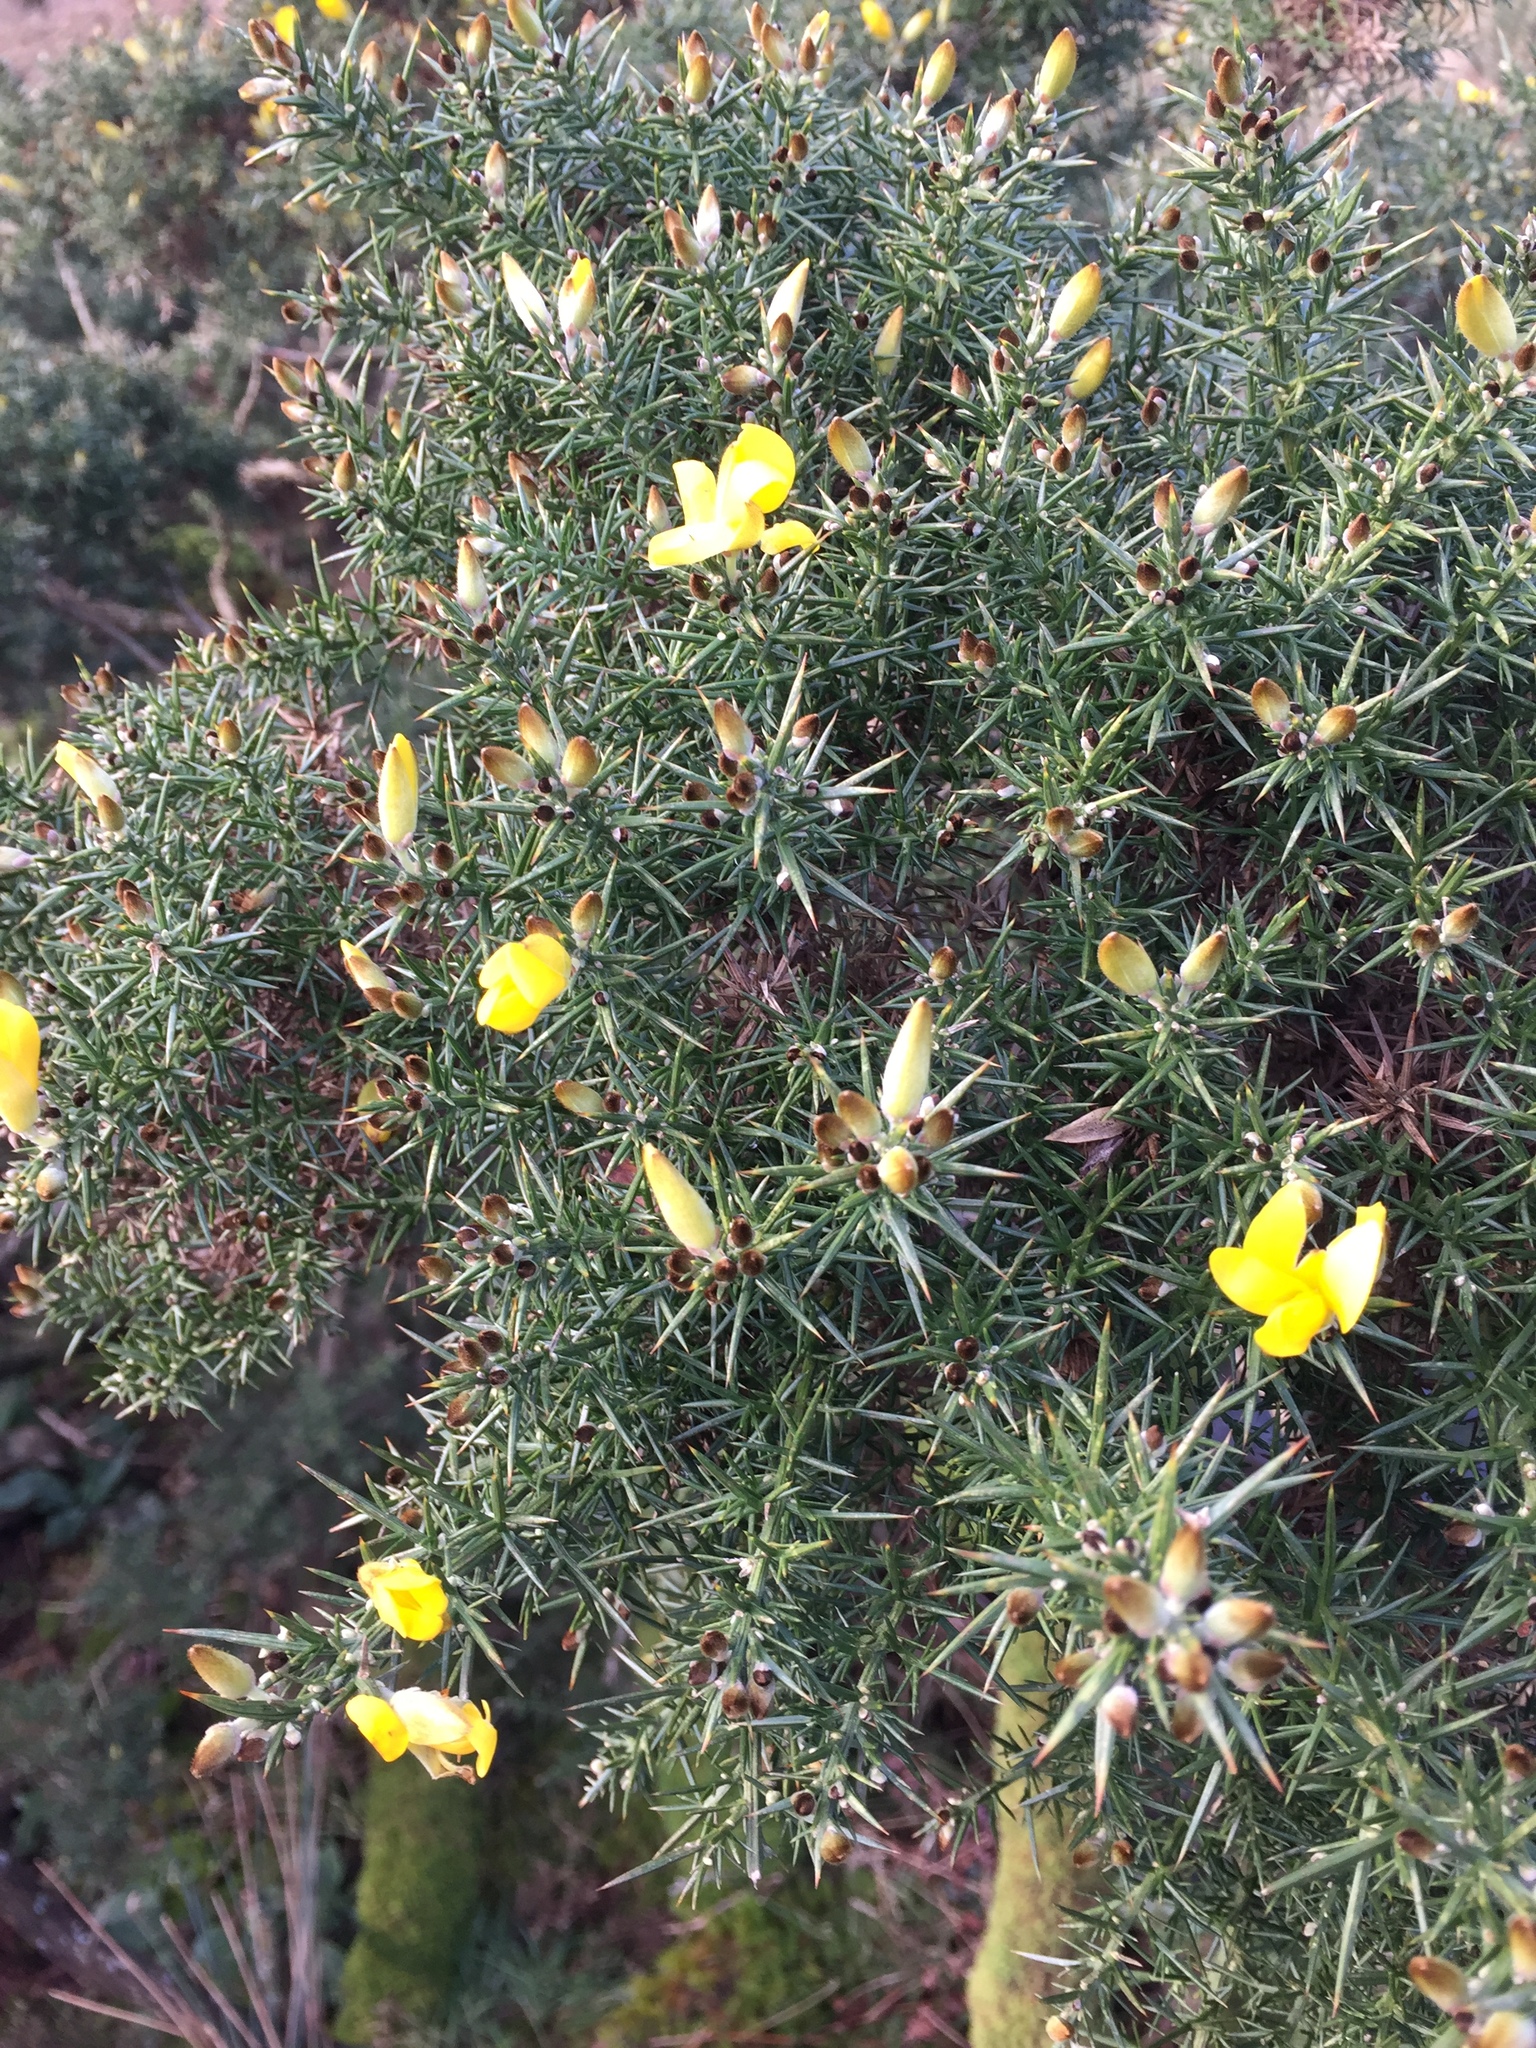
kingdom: Plantae
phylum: Tracheophyta
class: Magnoliopsida
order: Fabales
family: Fabaceae
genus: Ulex
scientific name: Ulex europaeus
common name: Common gorse
